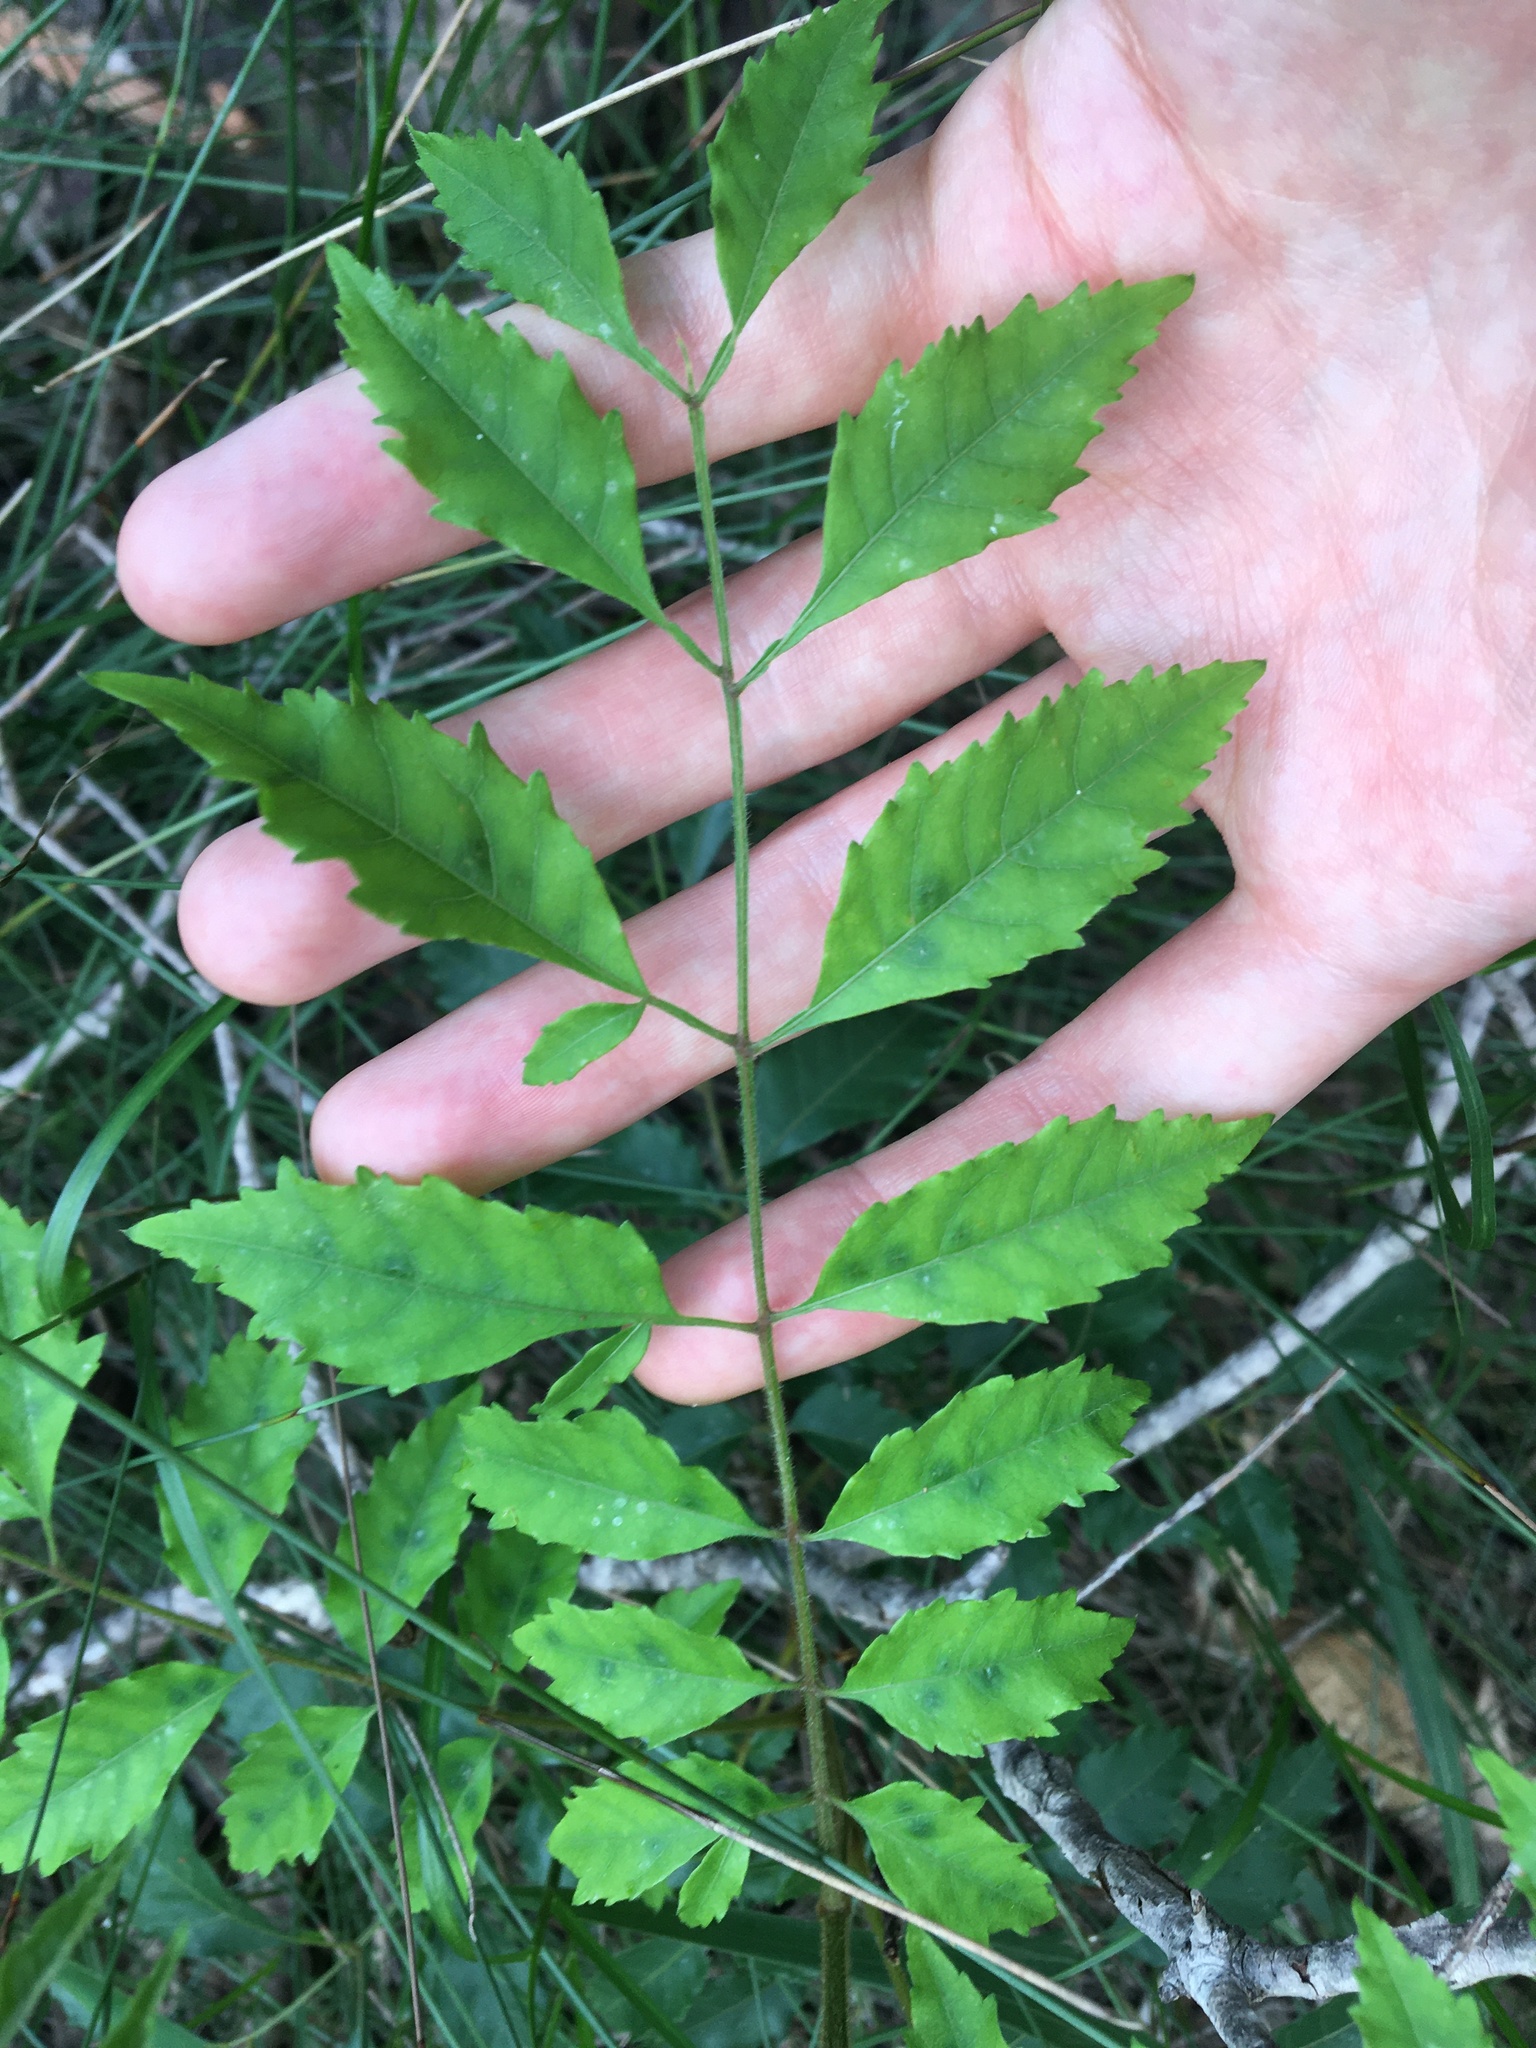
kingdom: Plantae
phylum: Tracheophyta
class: Magnoliopsida
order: Sapindales
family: Sapindaceae
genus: Jagera
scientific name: Jagera pseudorhus
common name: Fern-leaf-tamarind
